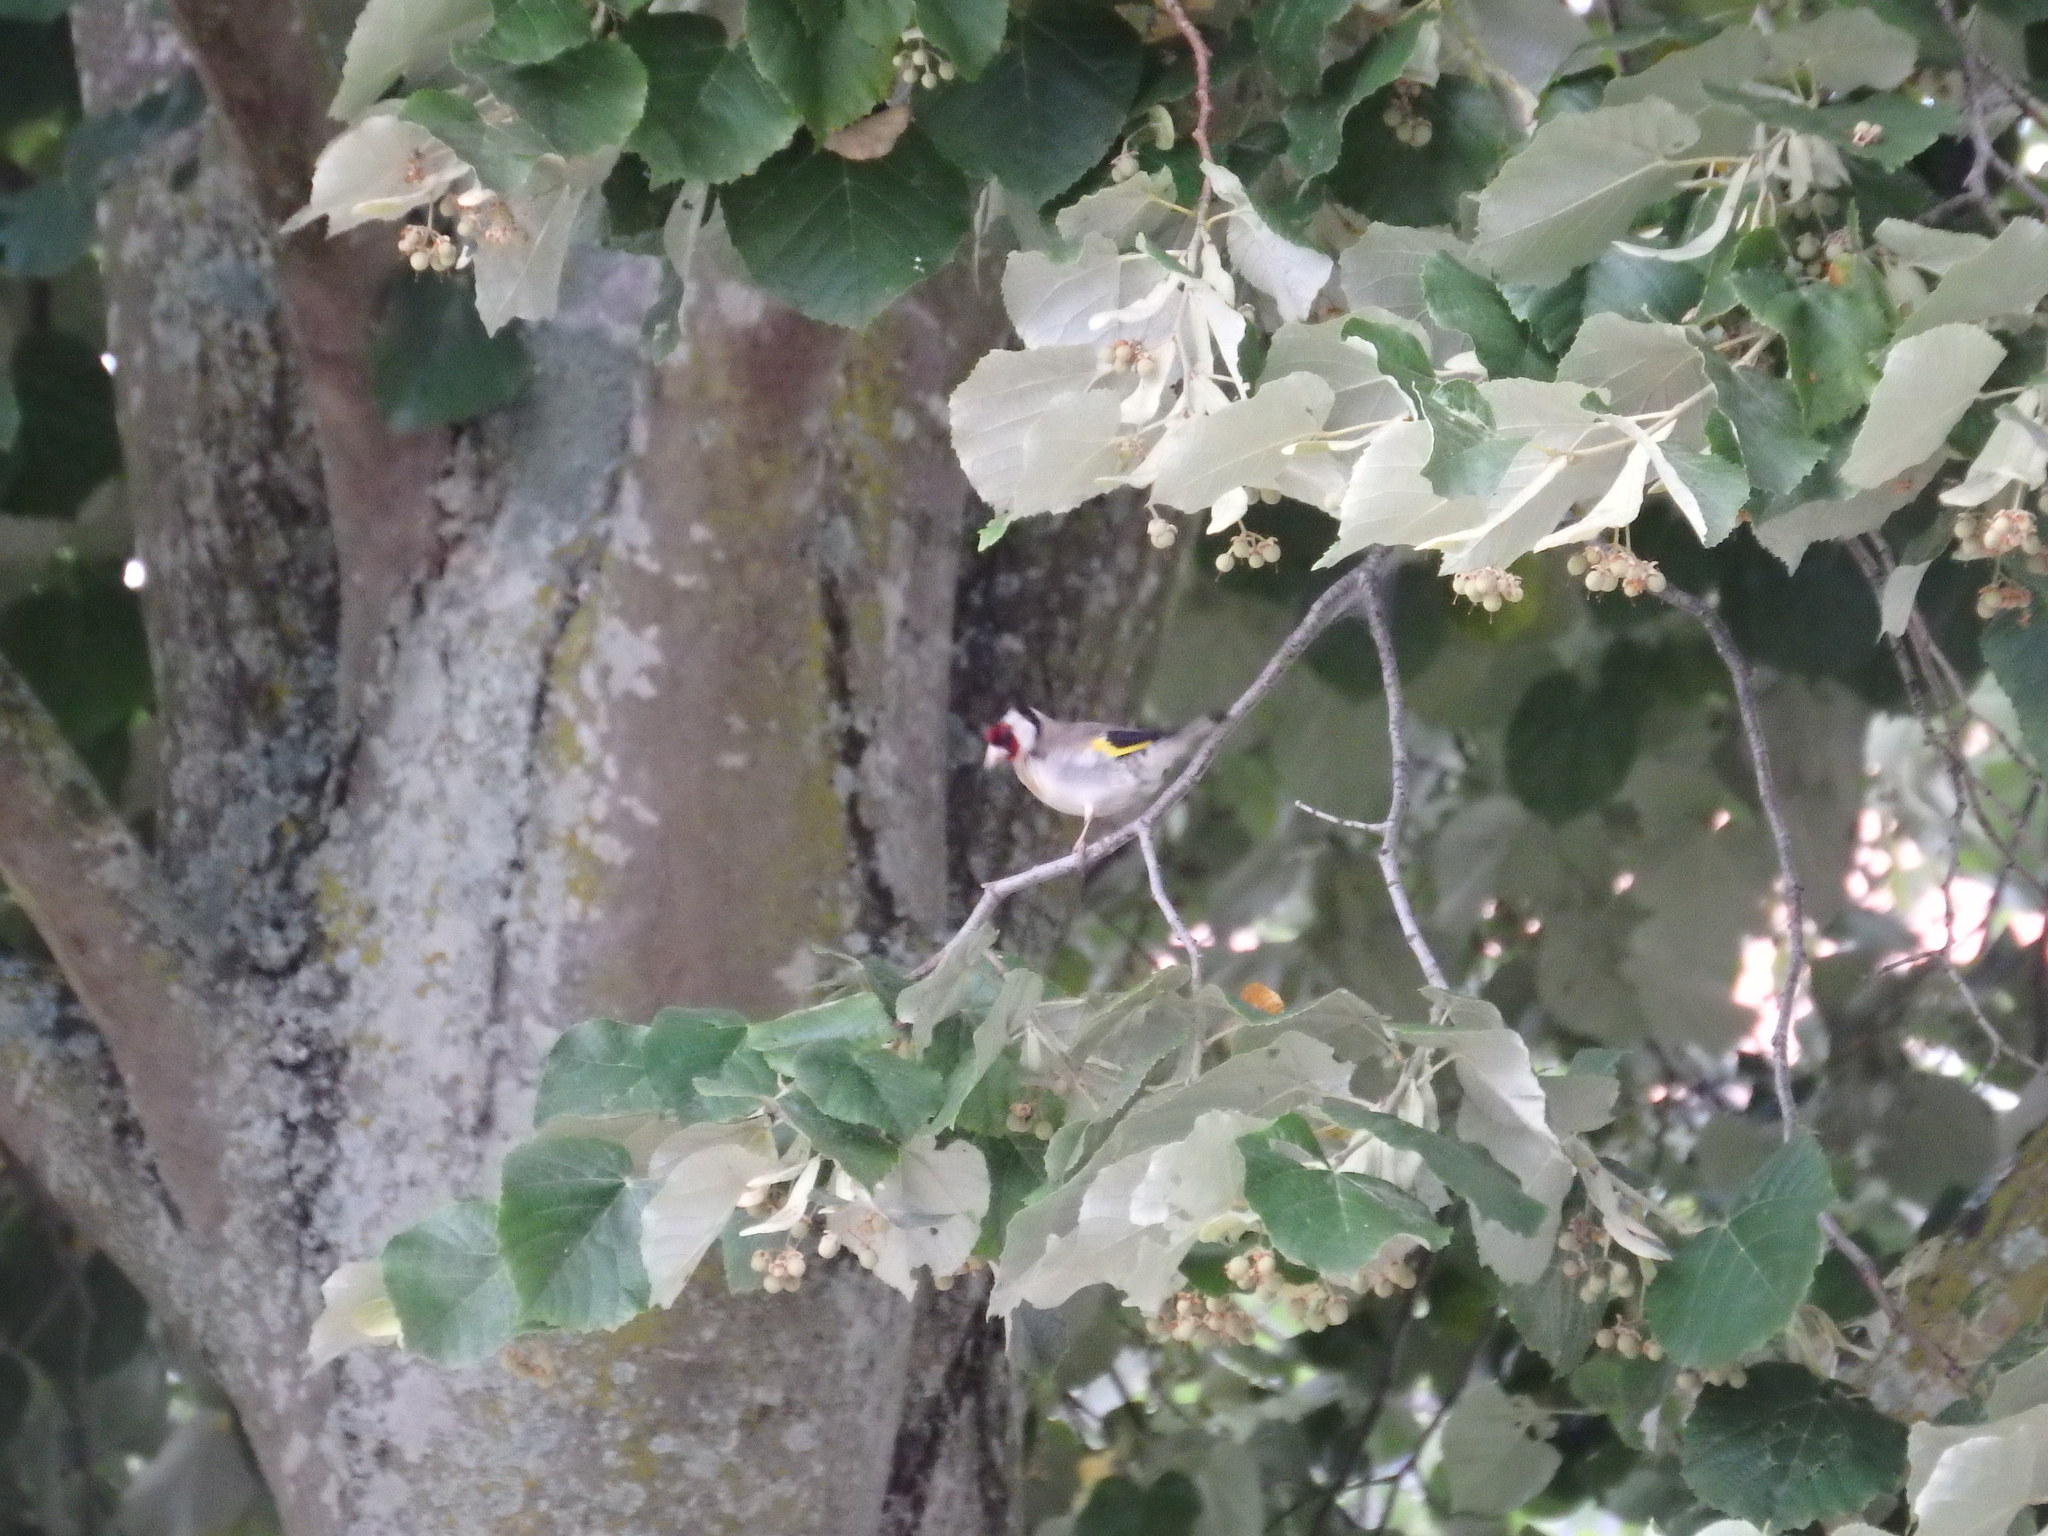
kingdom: Animalia
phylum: Chordata
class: Aves
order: Passeriformes
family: Fringillidae
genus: Carduelis
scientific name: Carduelis carduelis
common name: European goldfinch
